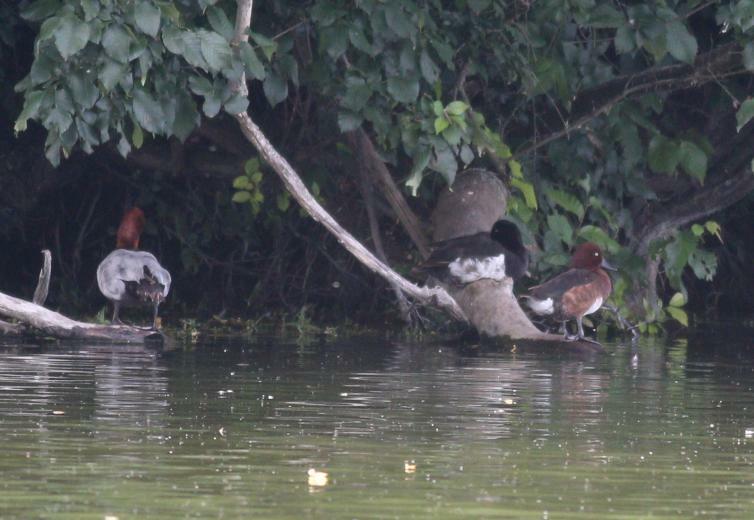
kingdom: Animalia
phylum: Chordata
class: Aves
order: Anseriformes
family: Anatidae
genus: Aythya
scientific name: Aythya nyroca
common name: Ferruginous duck
